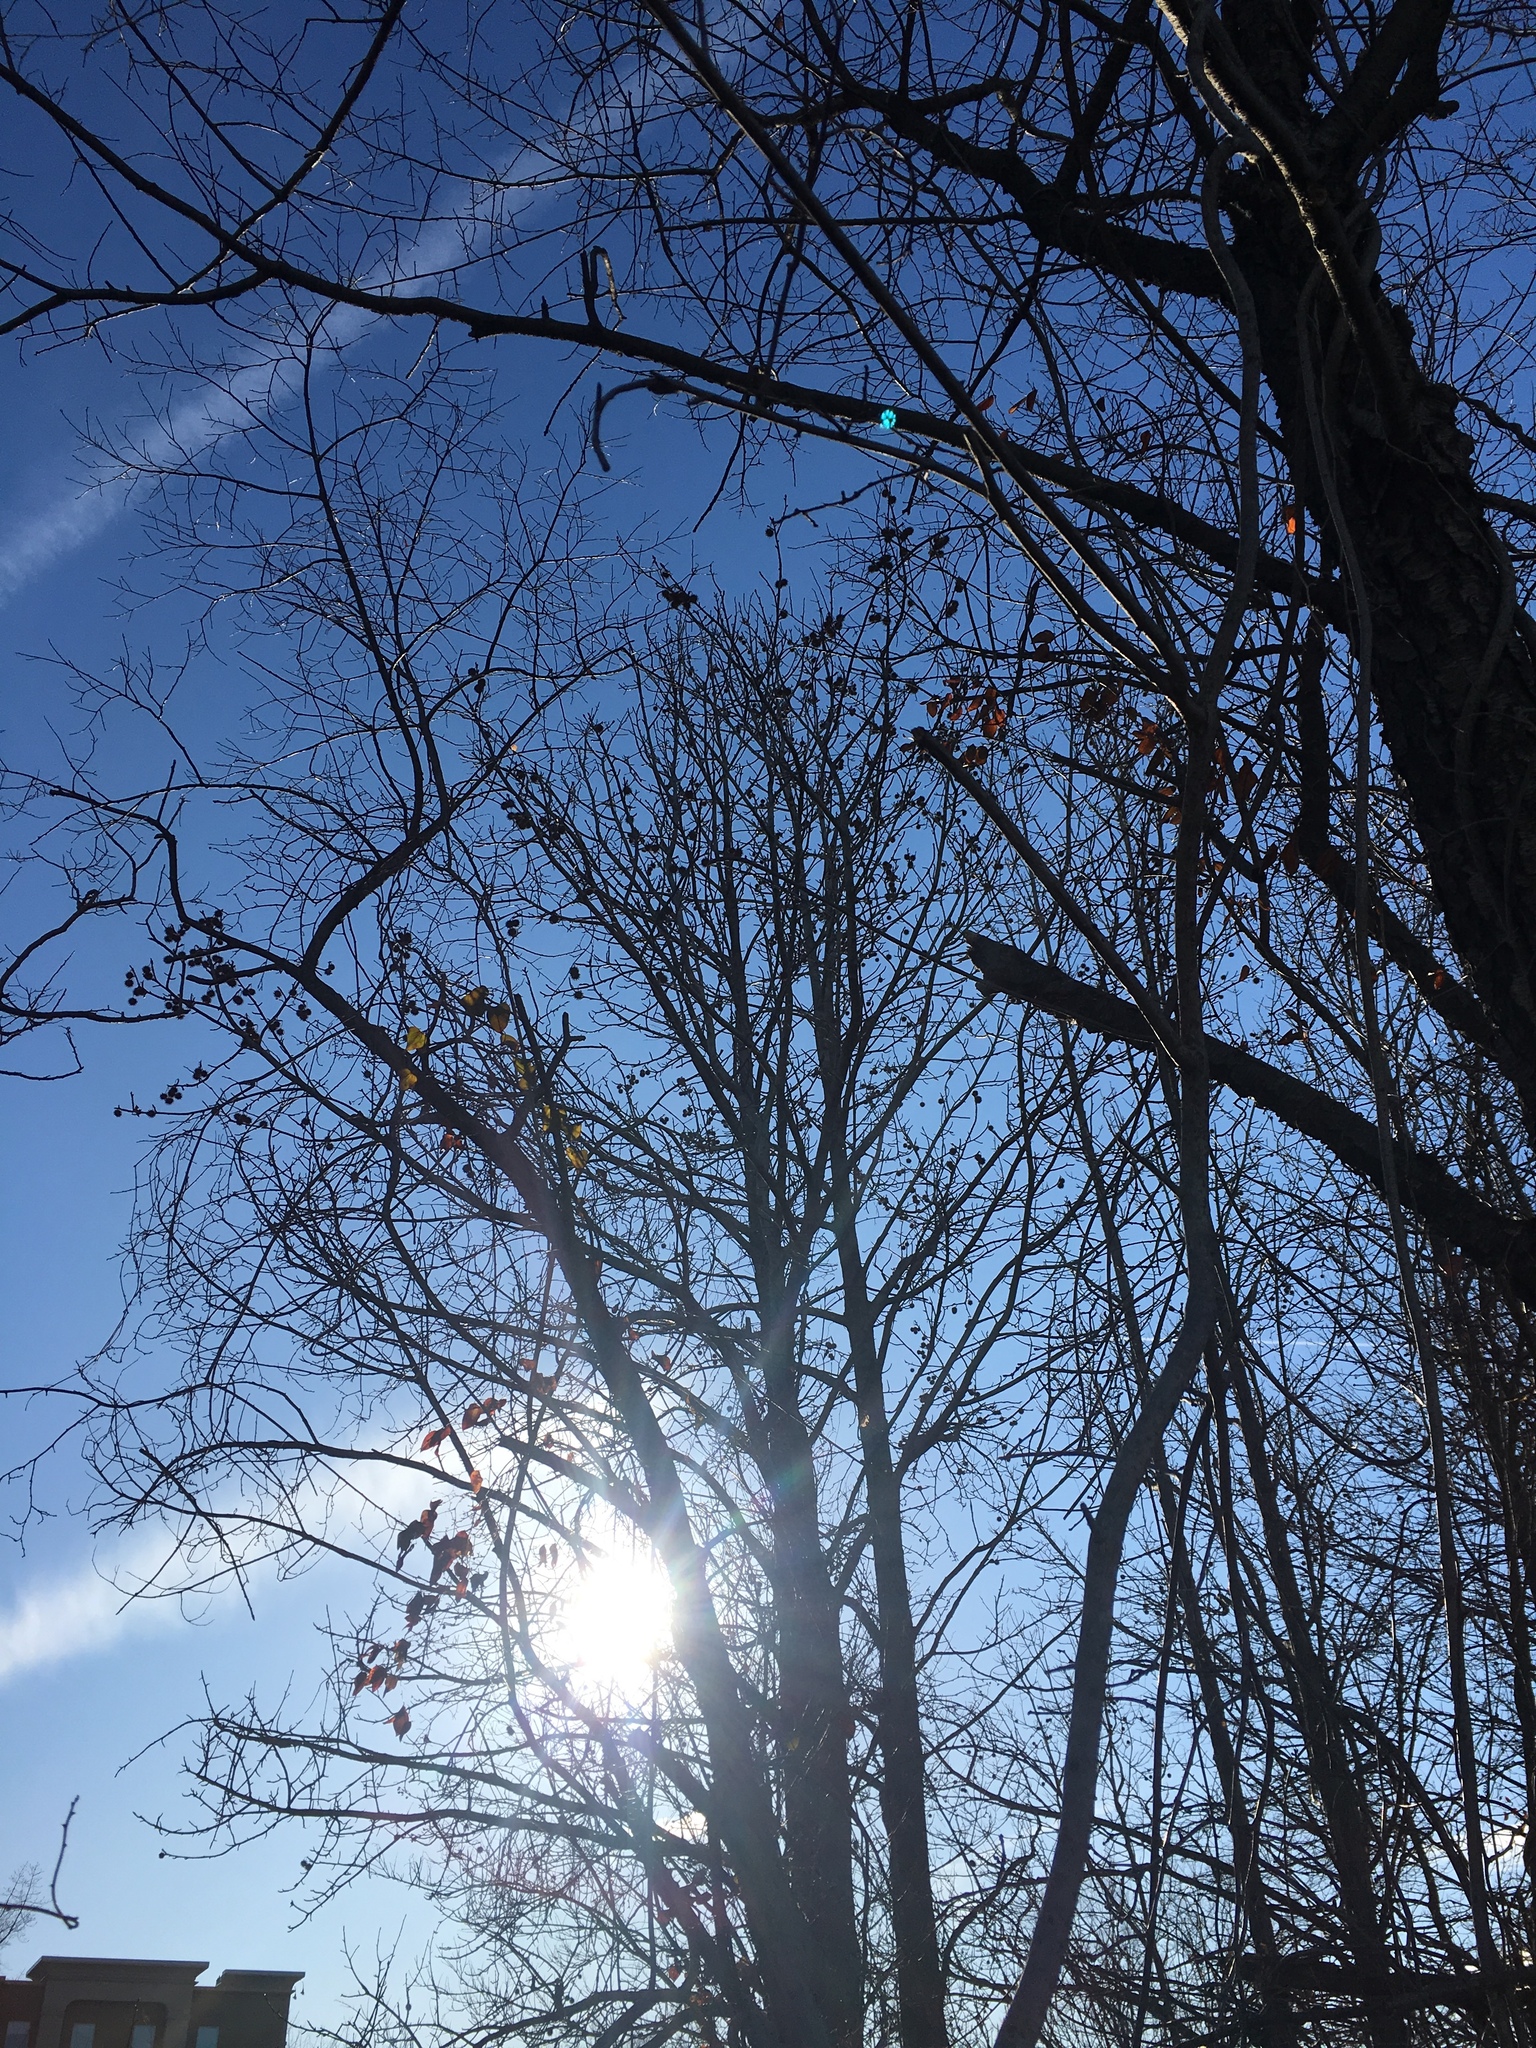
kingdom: Plantae
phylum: Tracheophyta
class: Magnoliopsida
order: Saxifragales
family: Altingiaceae
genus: Liquidambar
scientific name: Liquidambar styraciflua
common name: Sweet gum
